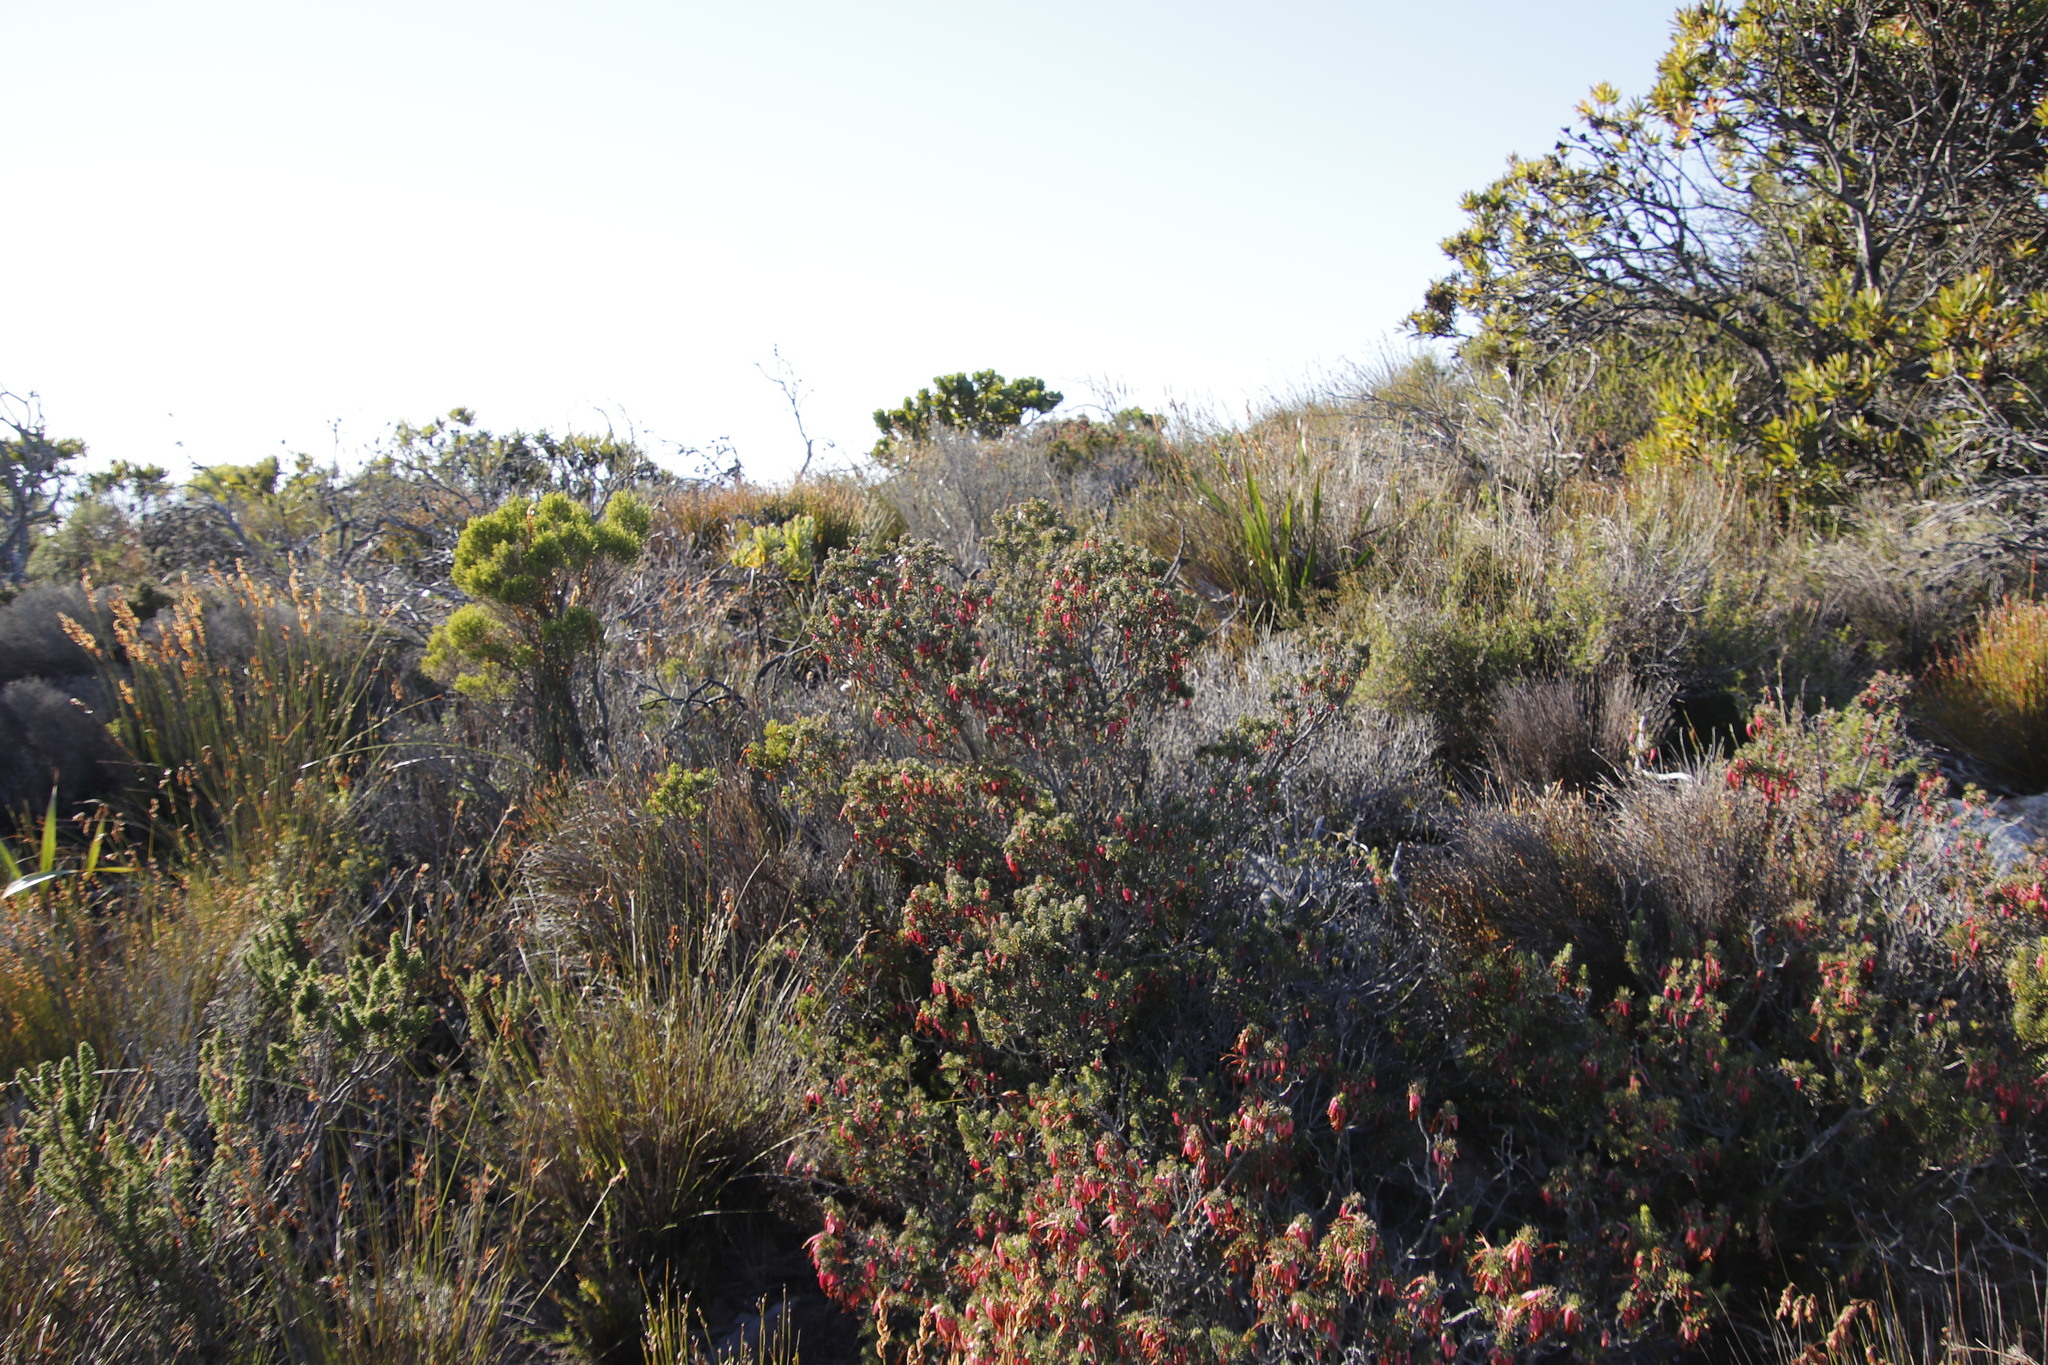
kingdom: Plantae
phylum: Tracheophyta
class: Magnoliopsida
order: Ericales
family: Ericaceae
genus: Erica
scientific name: Erica plukenetii
